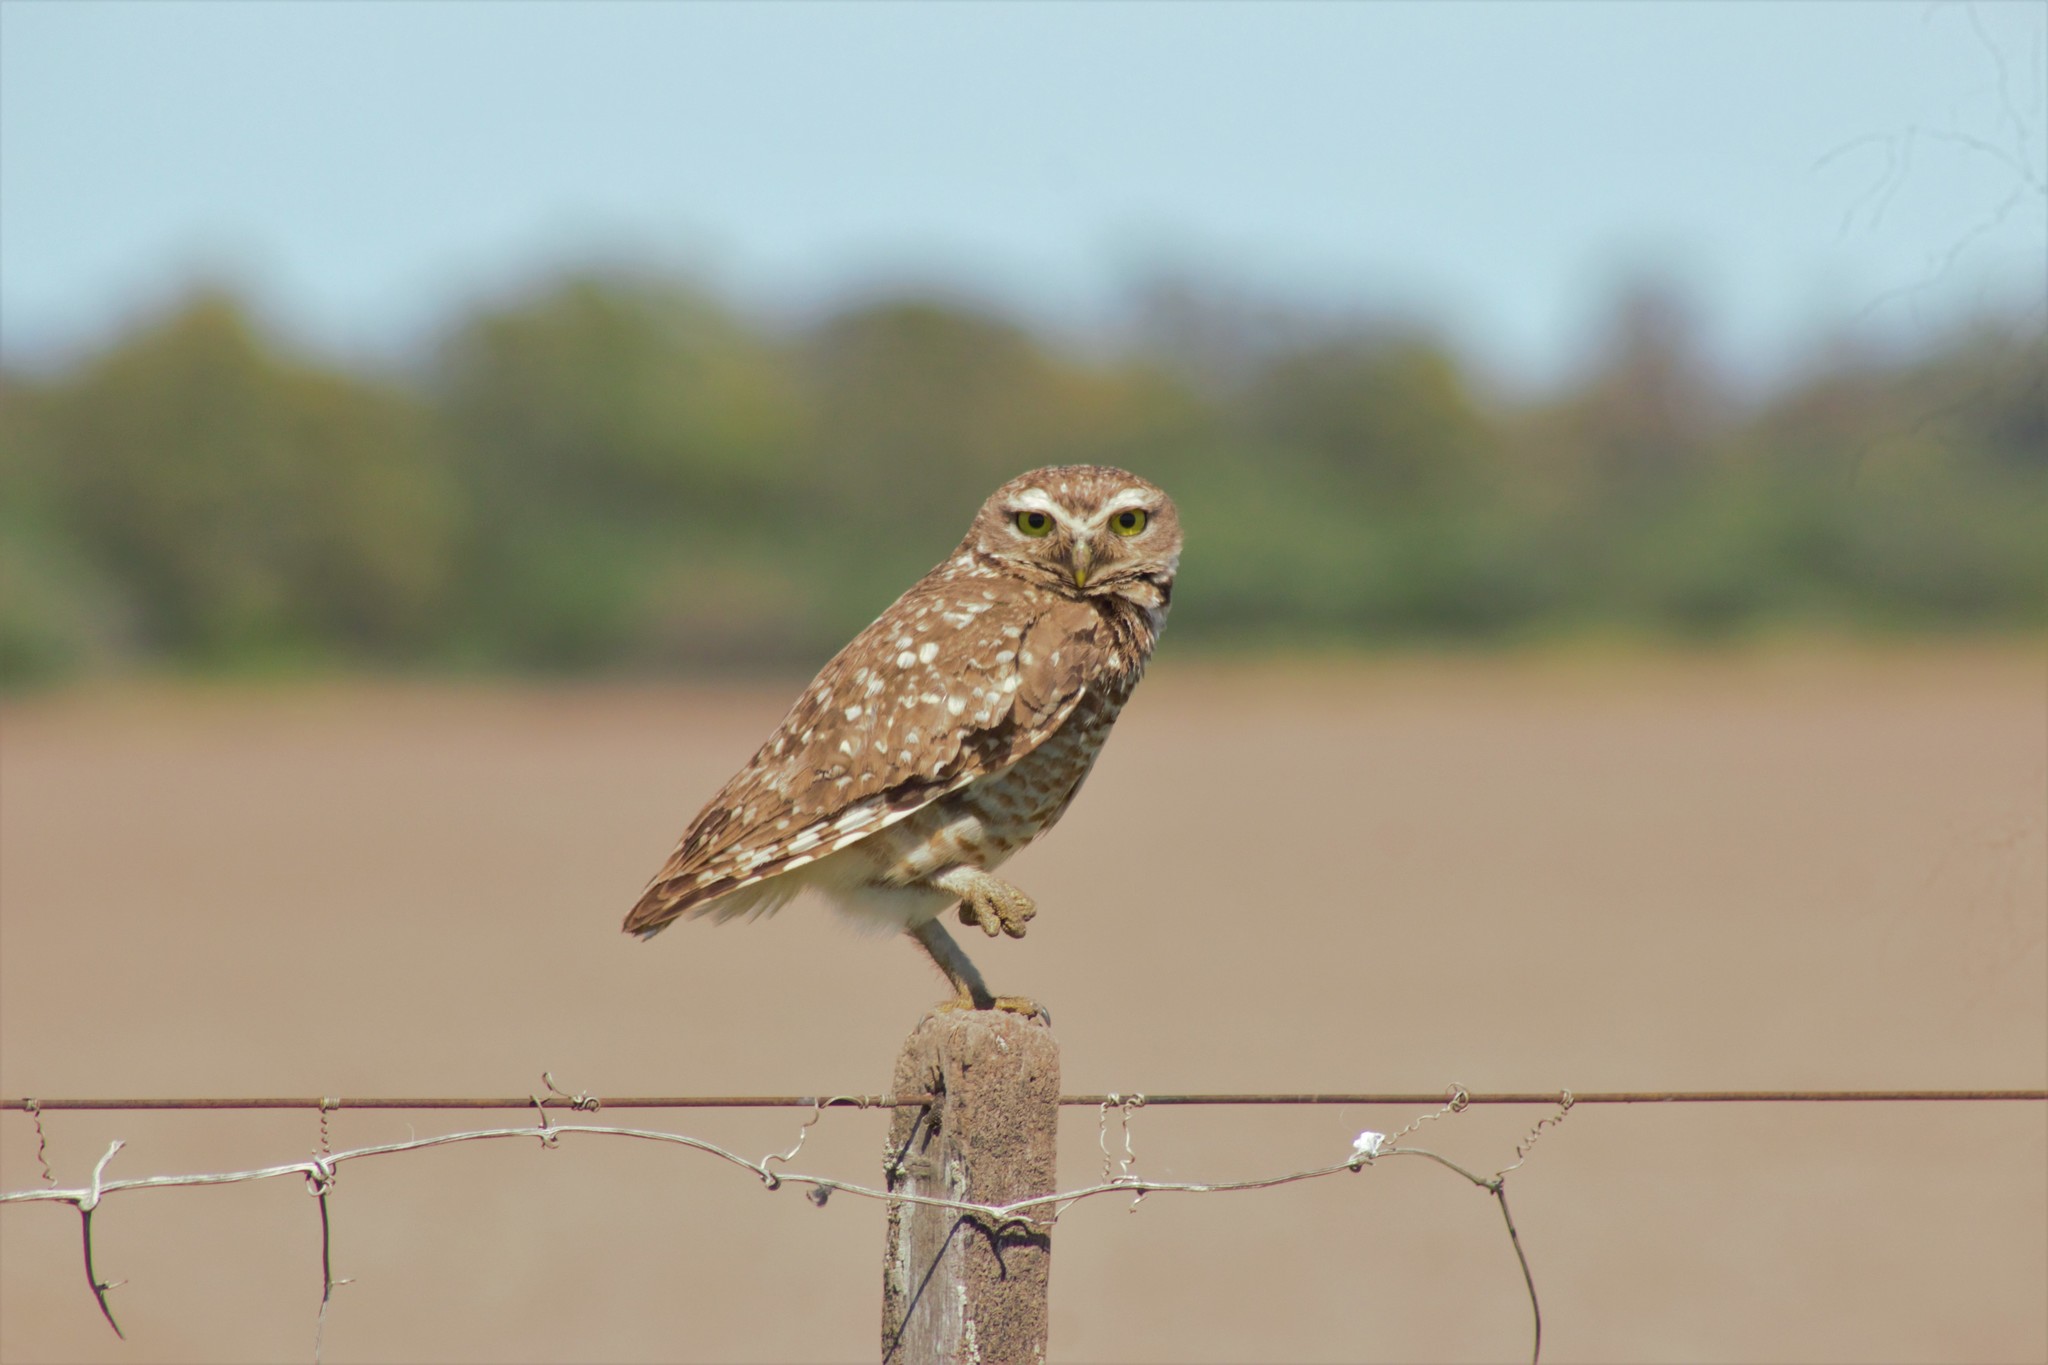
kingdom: Animalia
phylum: Chordata
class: Aves
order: Strigiformes
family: Strigidae
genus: Athene
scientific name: Athene cunicularia
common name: Burrowing owl
